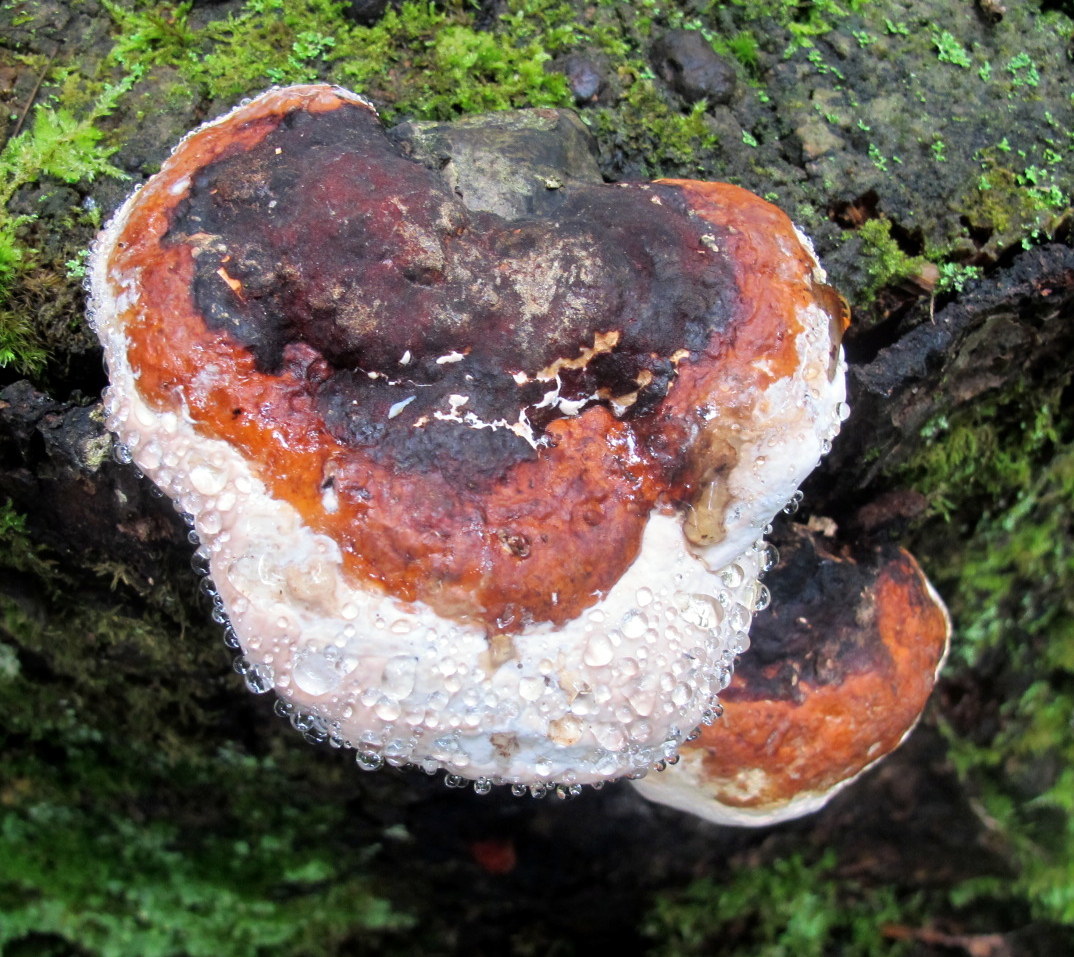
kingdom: Fungi
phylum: Basidiomycota
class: Agaricomycetes
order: Polyporales
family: Fomitopsidaceae
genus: Fomitopsis
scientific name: Fomitopsis mounceae
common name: Northern red belt
